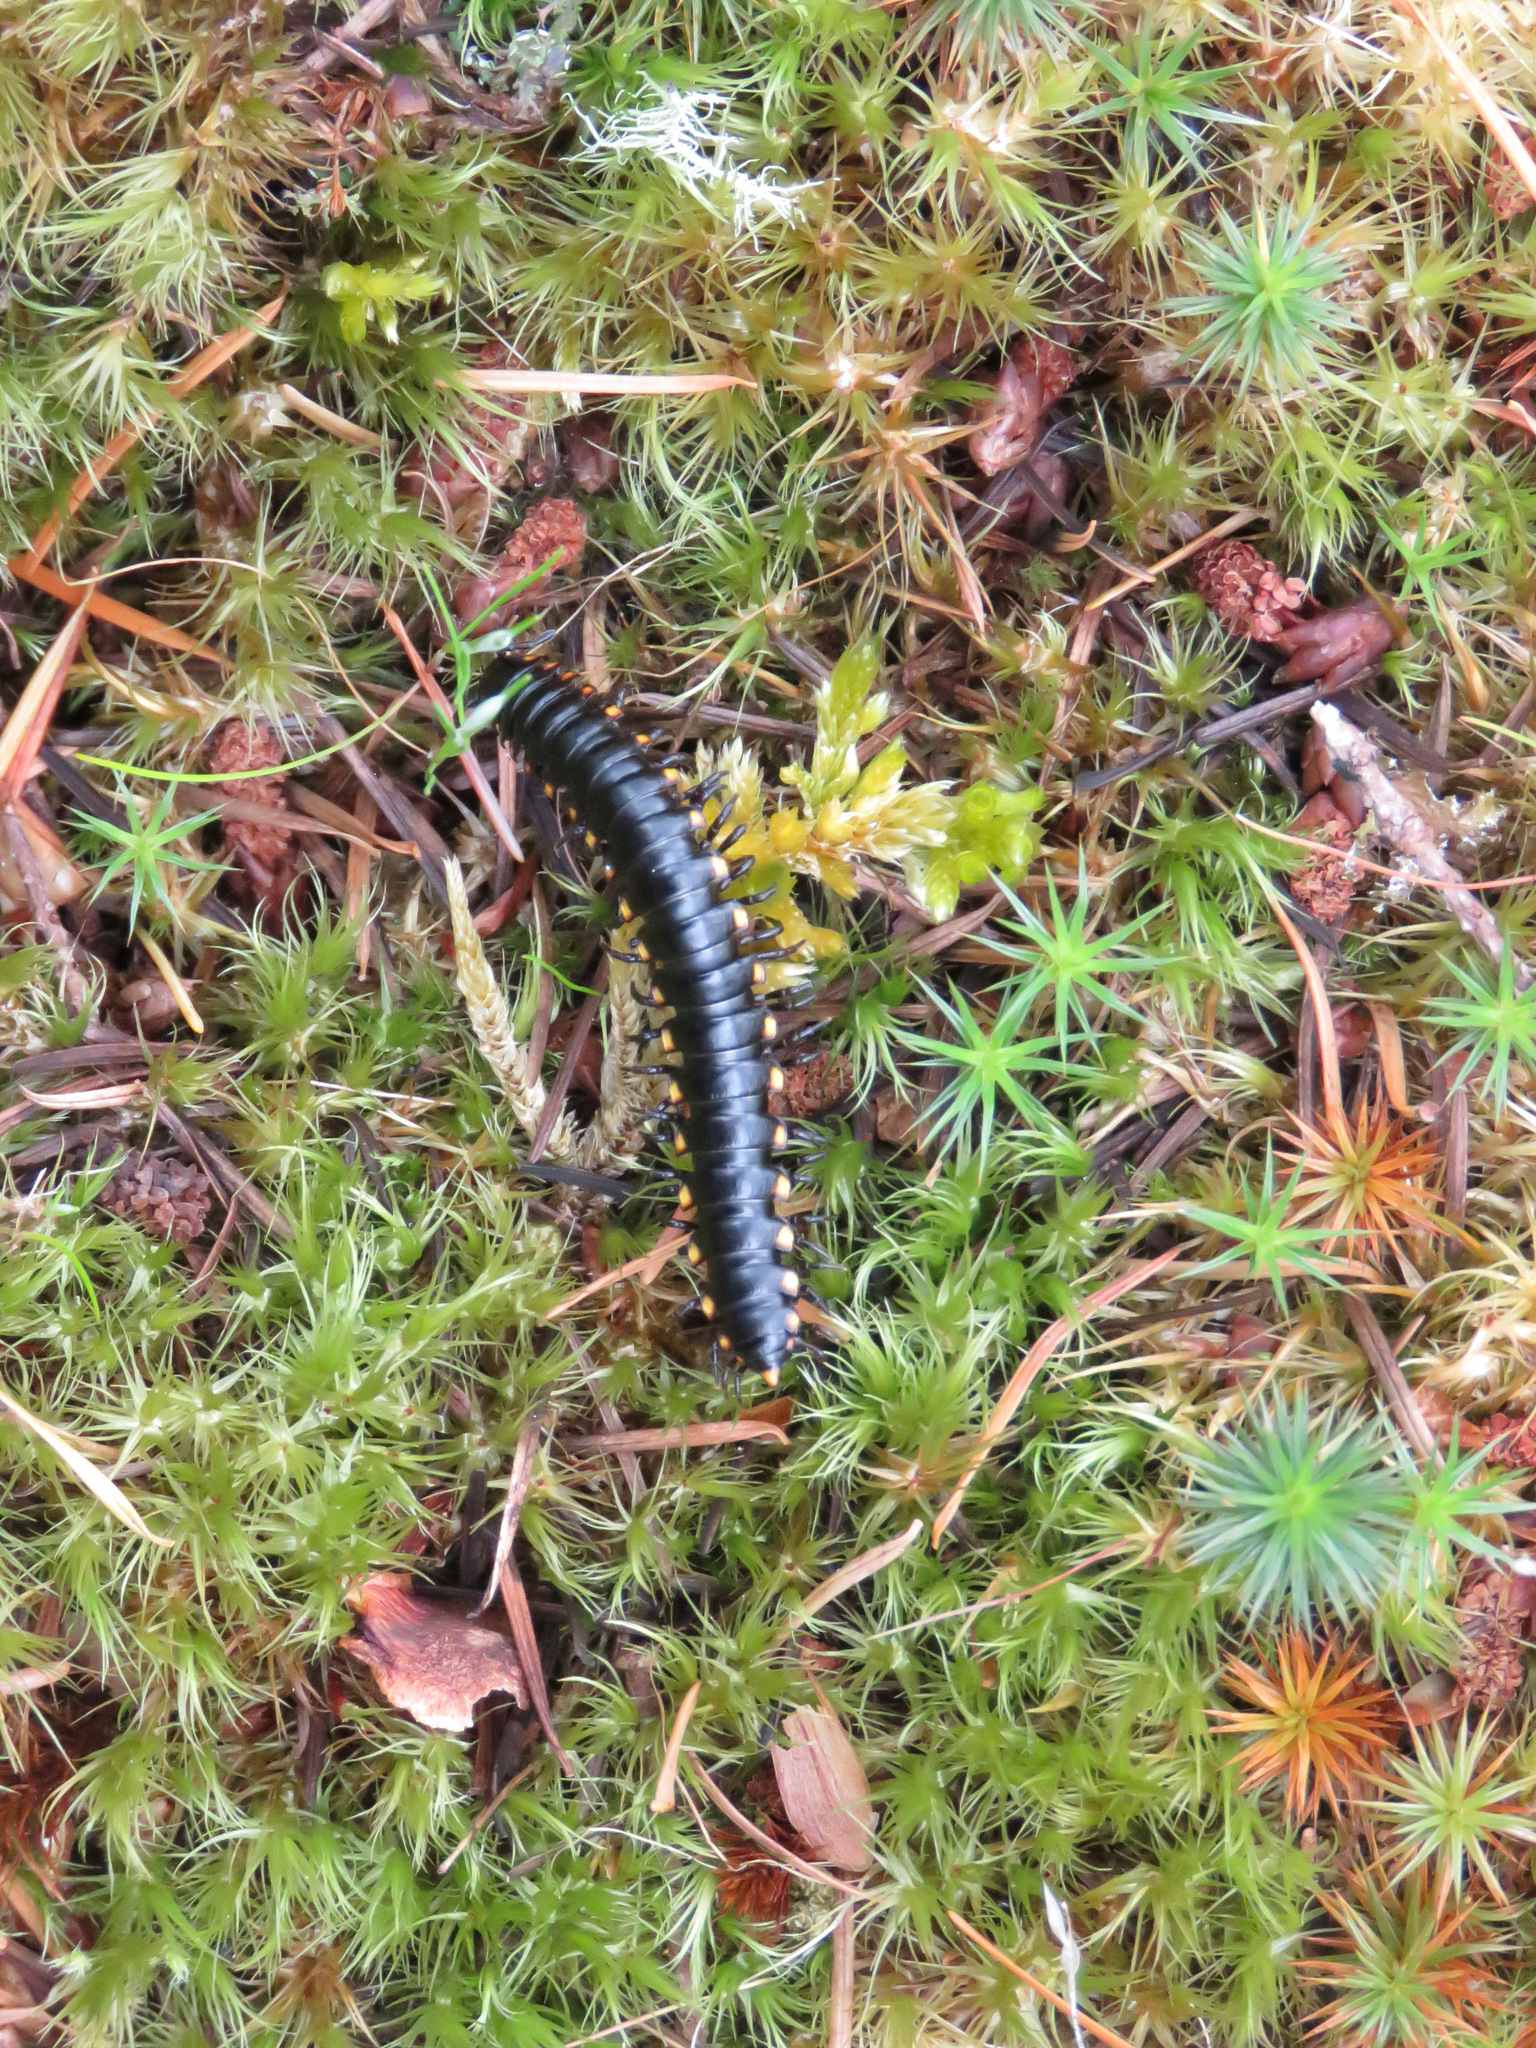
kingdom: Animalia
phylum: Arthropoda
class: Diplopoda
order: Polydesmida
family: Xystodesmidae
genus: Harpaphe
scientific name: Harpaphe haydeniana
